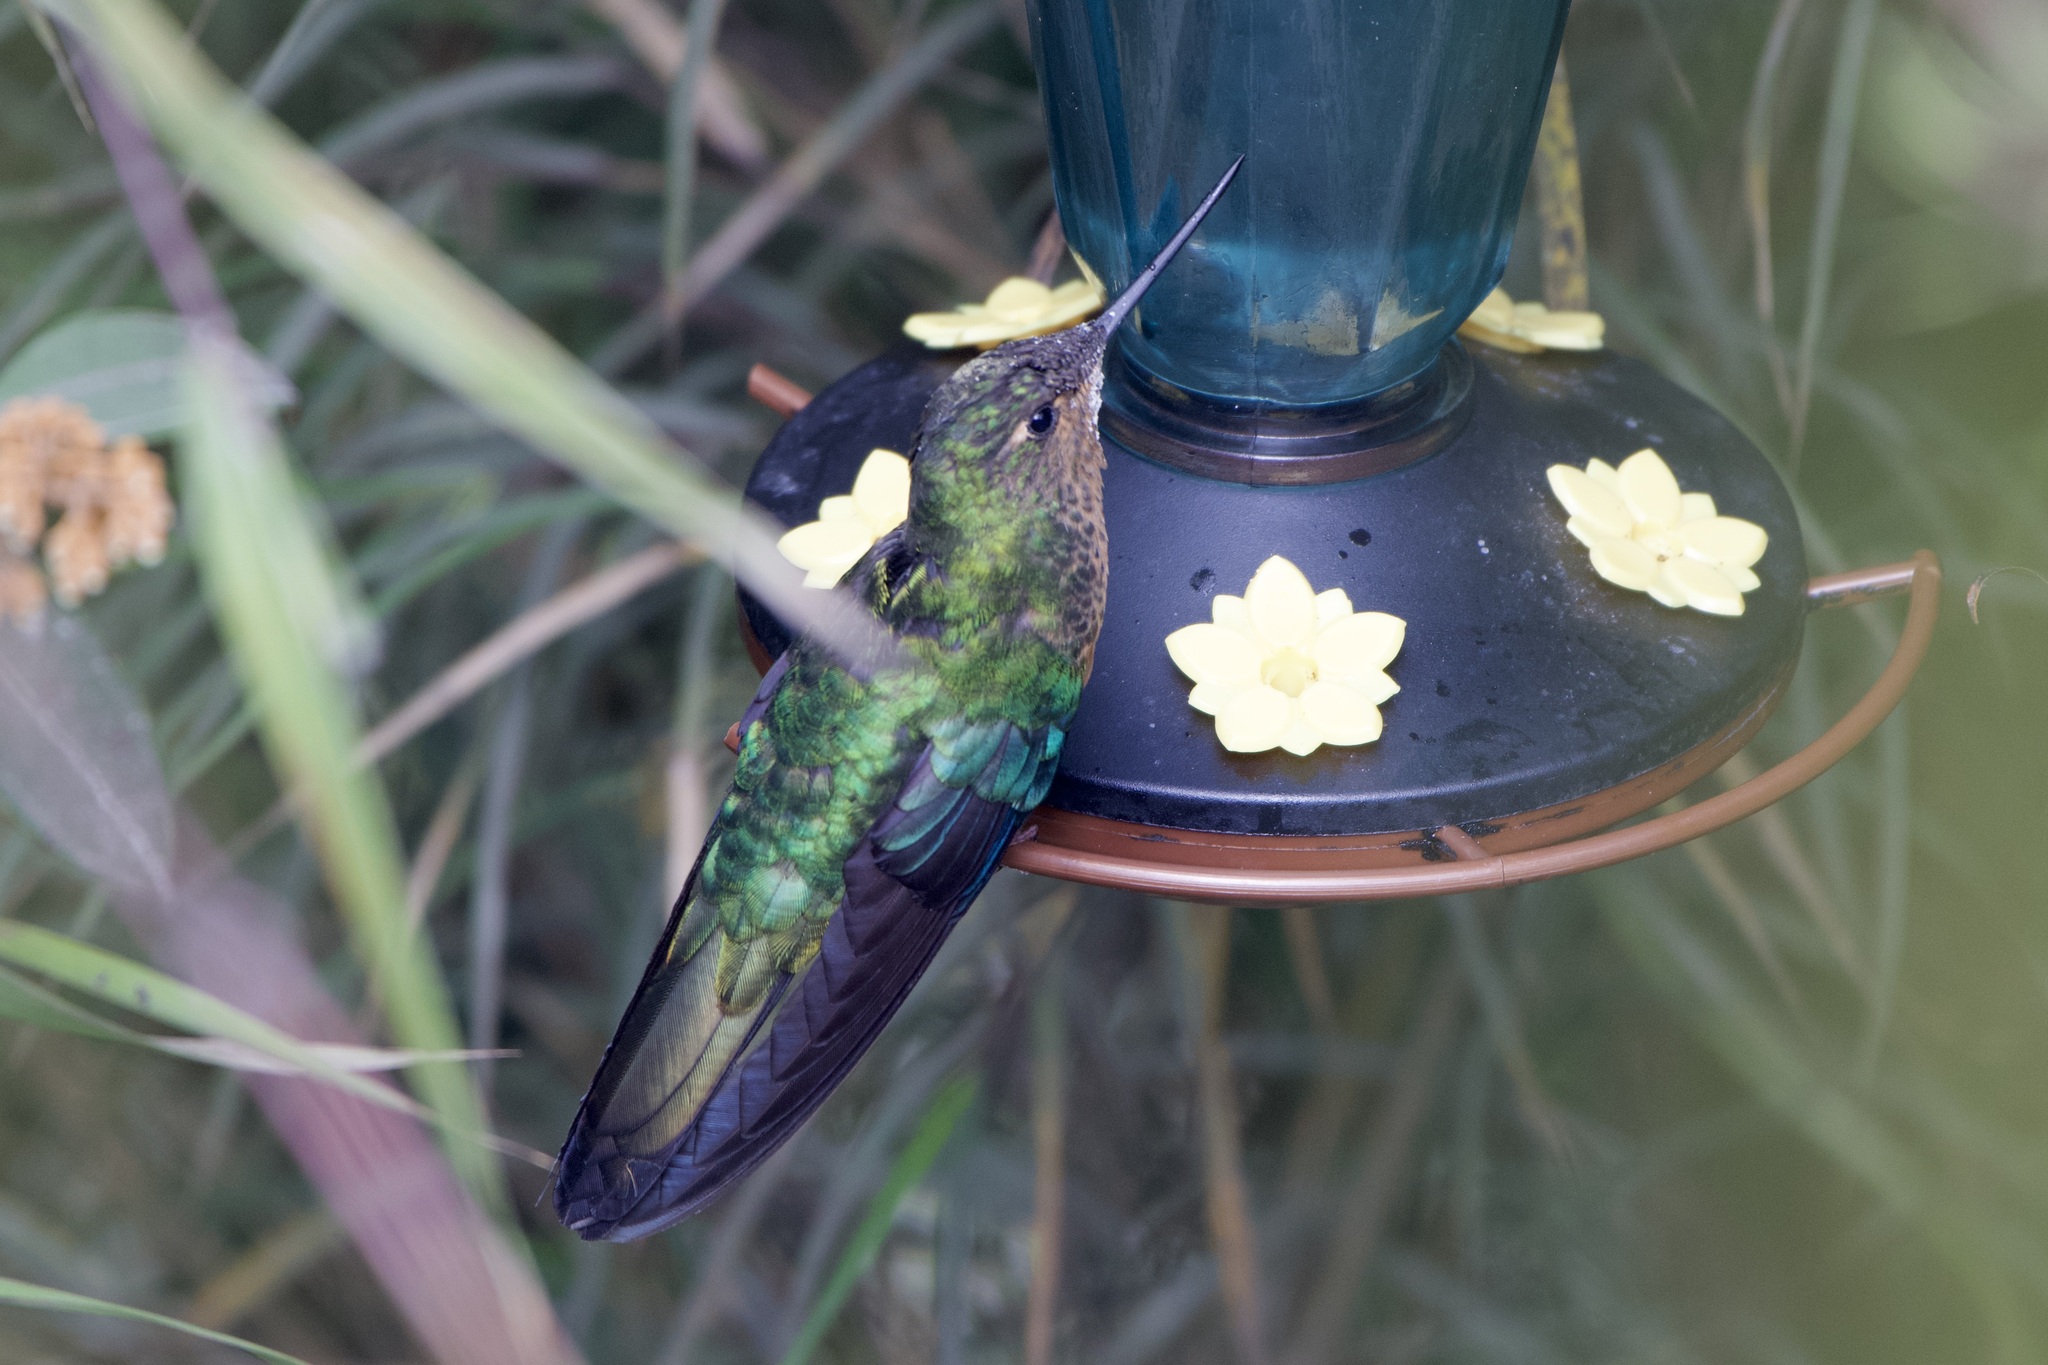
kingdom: Animalia
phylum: Chordata
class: Aves
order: Apodiformes
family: Trochilidae
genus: Pterophanes
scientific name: Pterophanes cyanopterus
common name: Great sapphirewing
